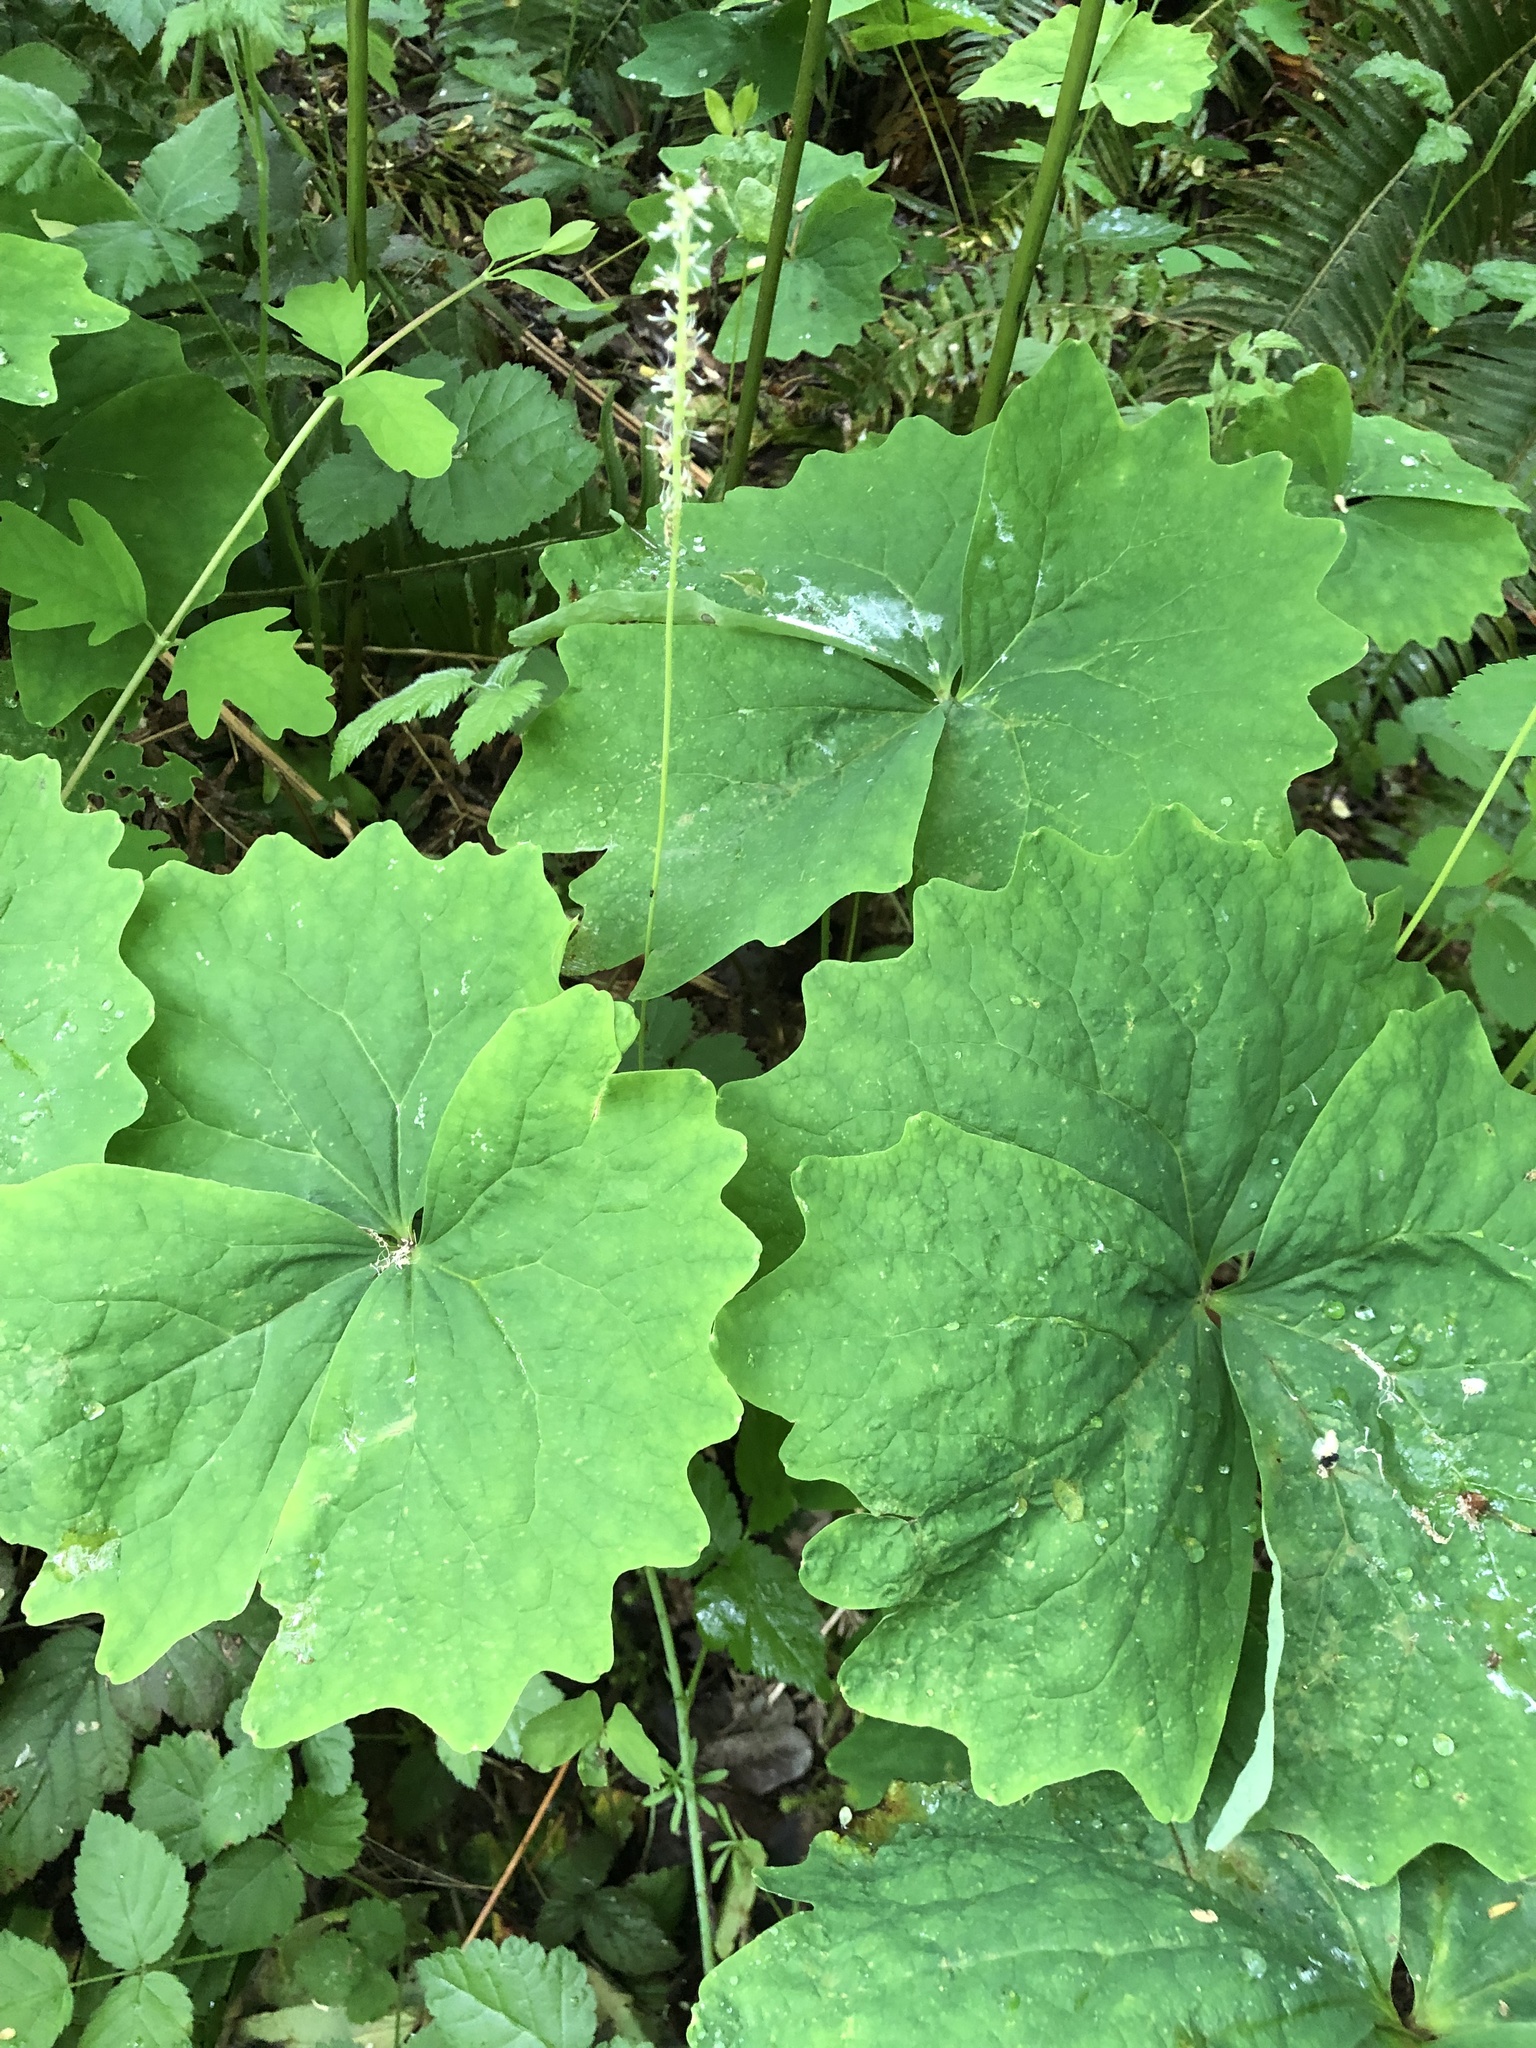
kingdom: Plantae
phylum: Tracheophyta
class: Magnoliopsida
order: Ranunculales
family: Berberidaceae
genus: Achlys
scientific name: Achlys californica
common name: California deer-foot
